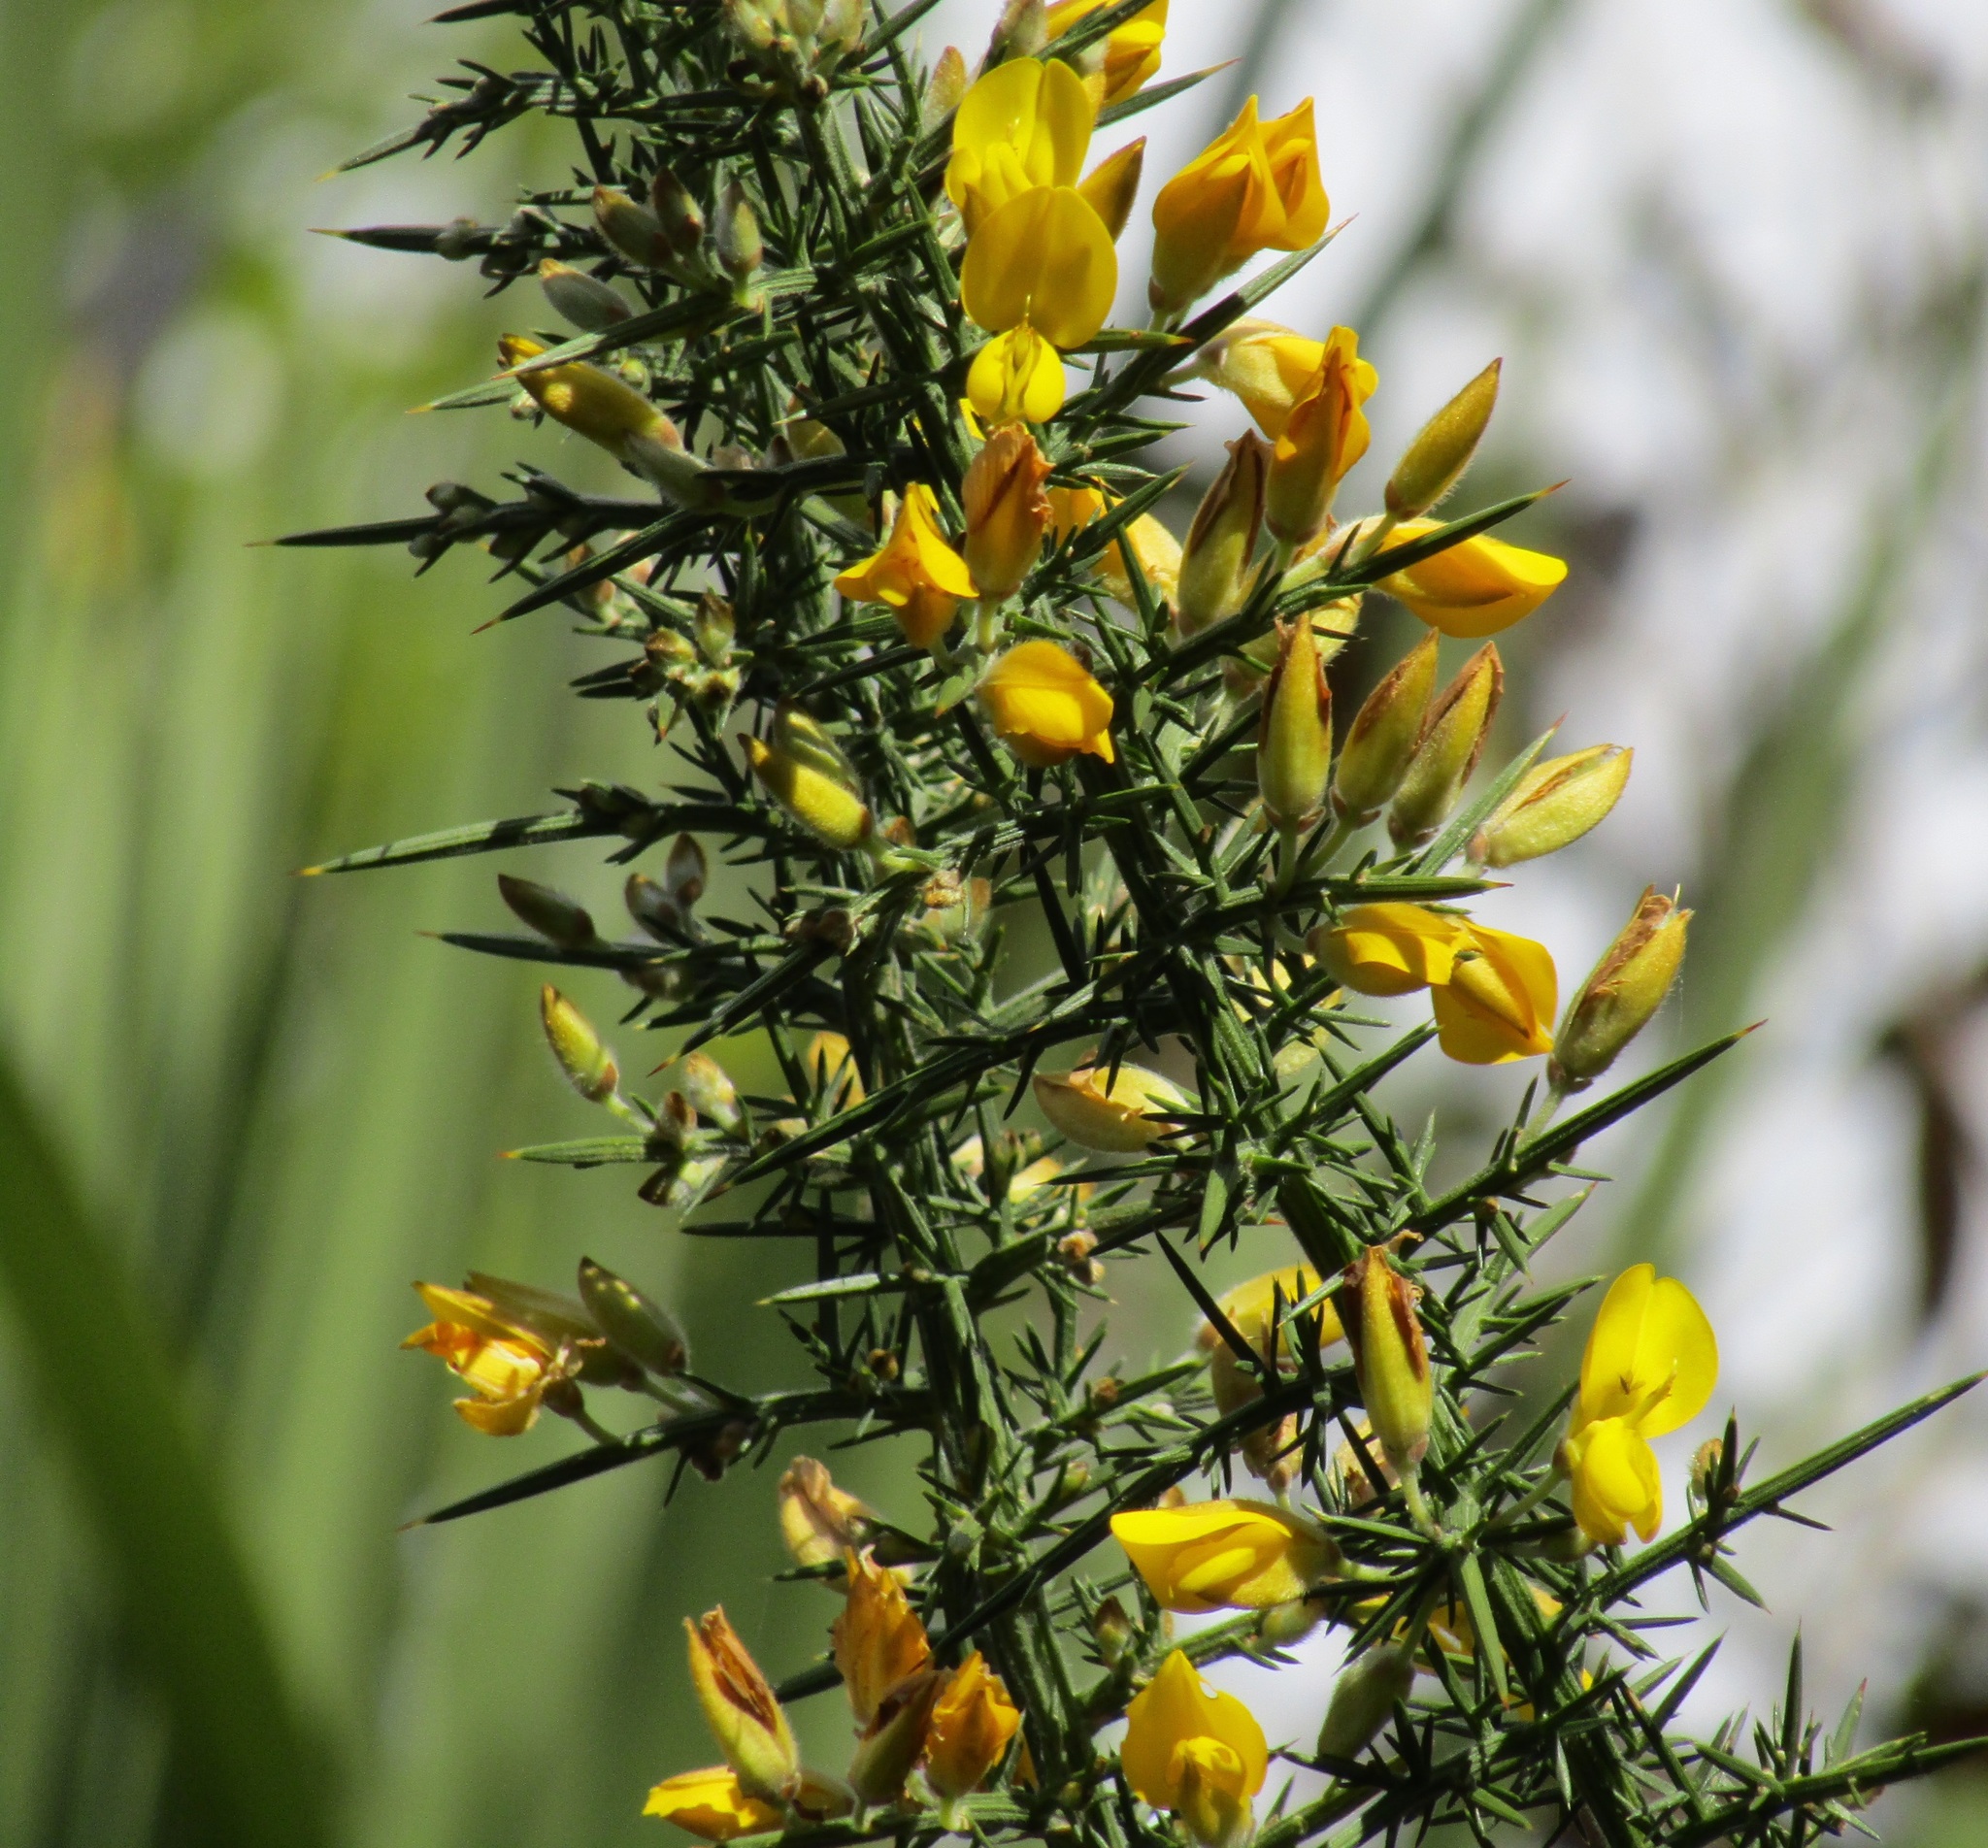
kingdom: Plantae
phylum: Tracheophyta
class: Magnoliopsida
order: Fabales
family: Fabaceae
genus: Ulex
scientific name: Ulex europaeus
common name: Common gorse
